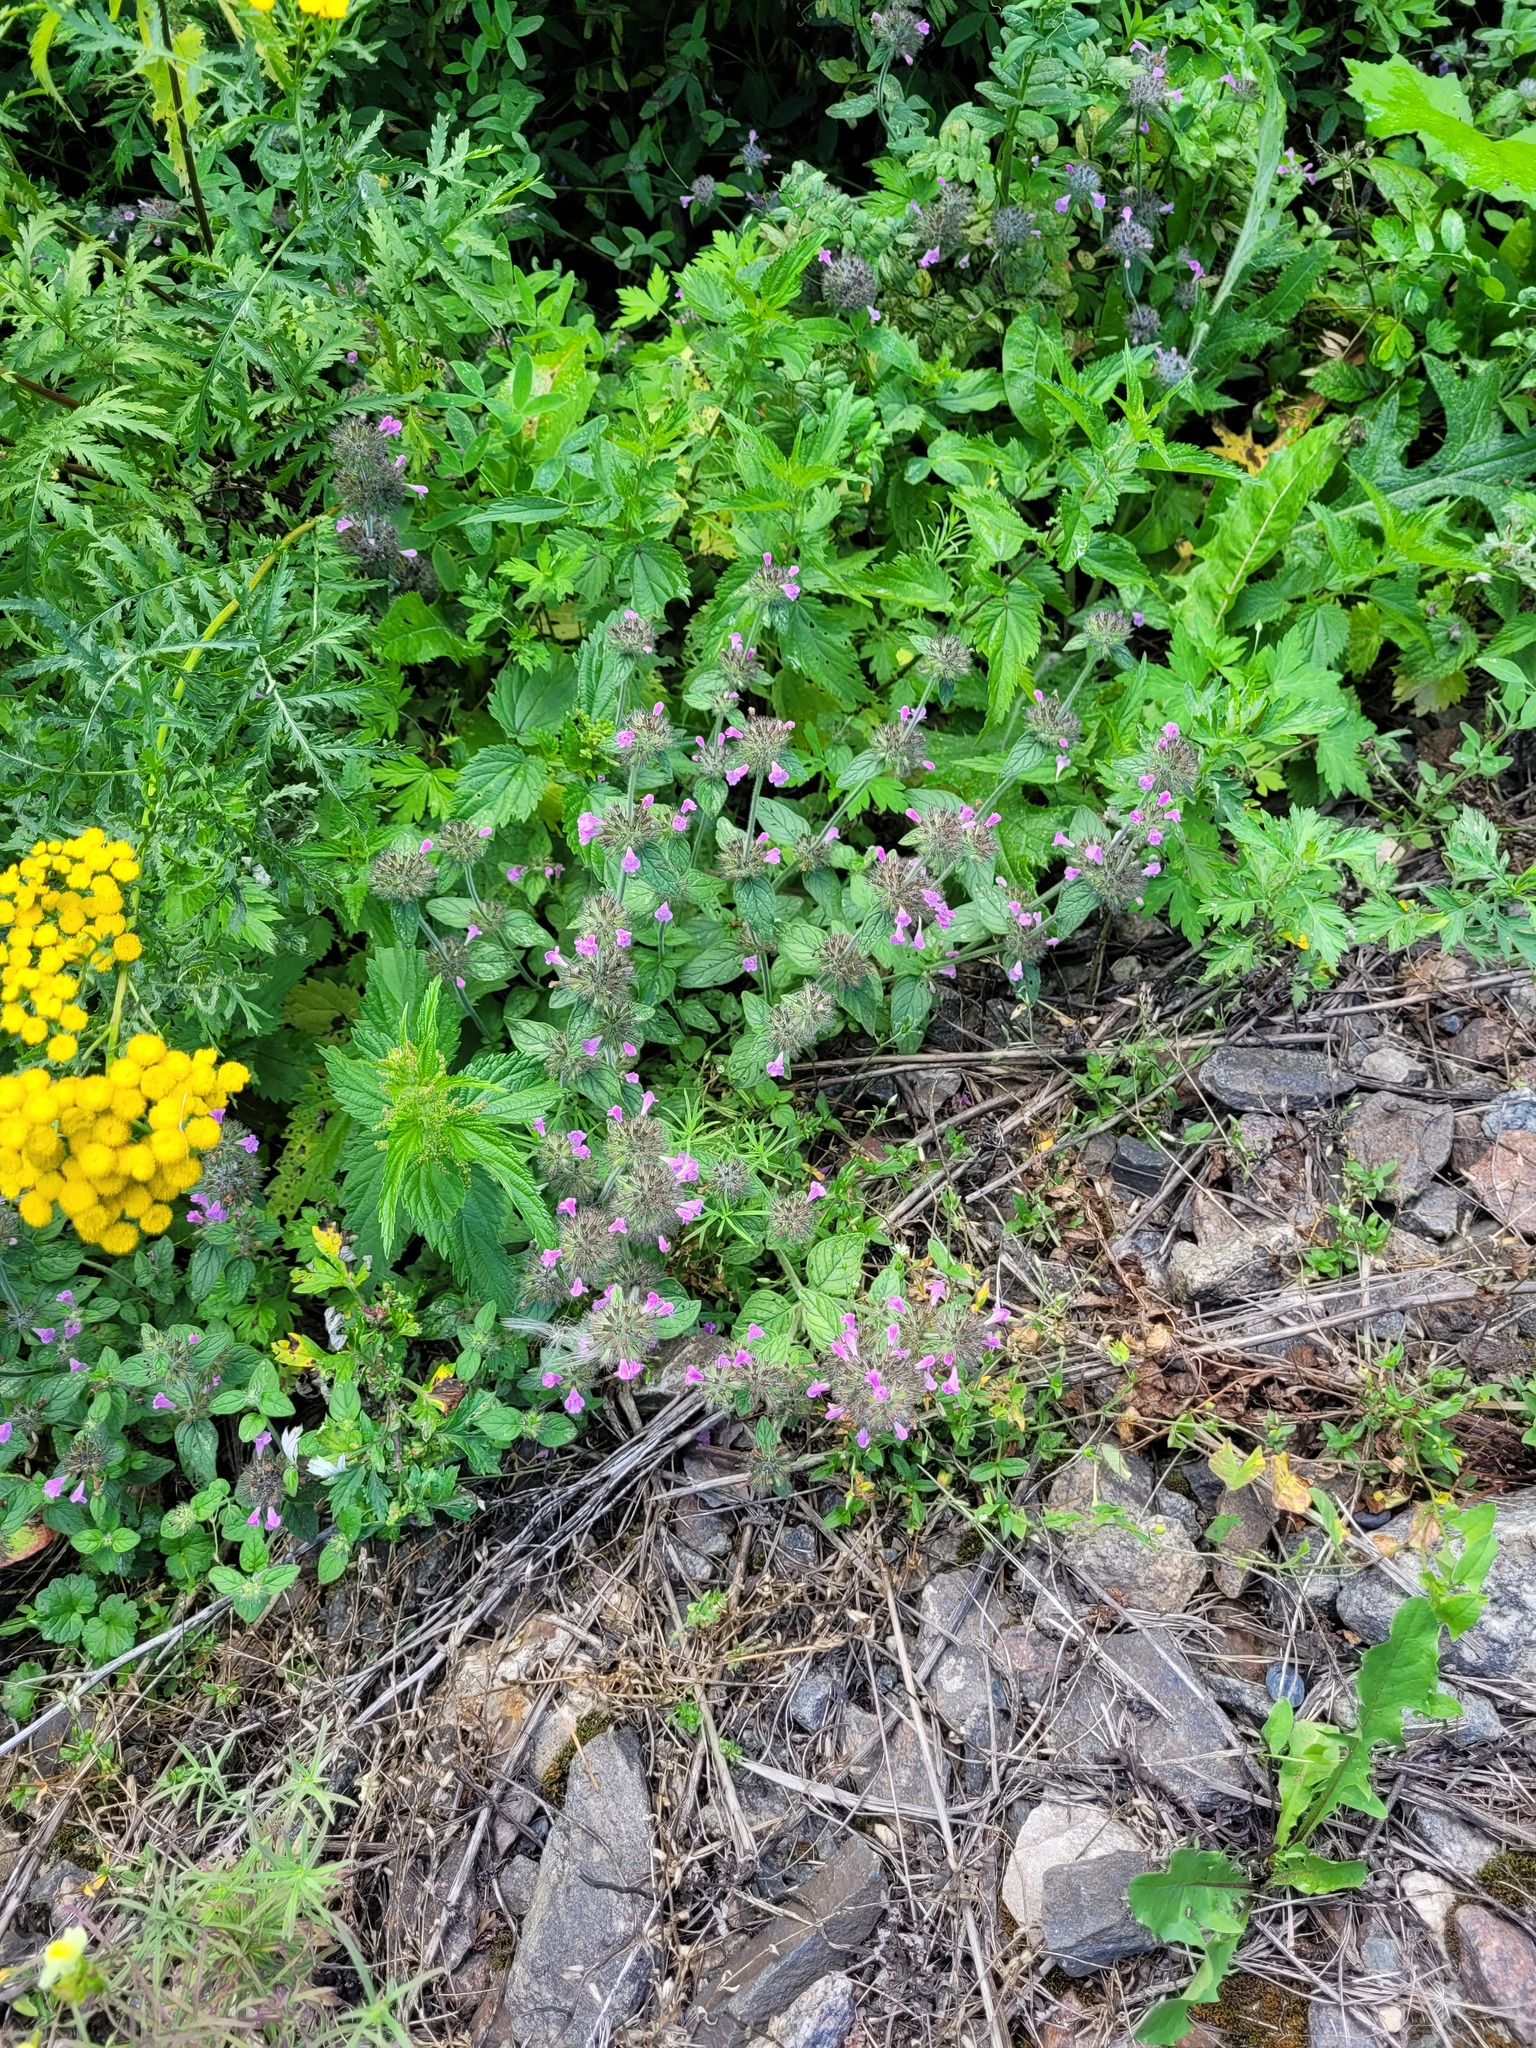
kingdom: Plantae
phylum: Tracheophyta
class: Magnoliopsida
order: Lamiales
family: Lamiaceae
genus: Clinopodium
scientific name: Clinopodium vulgare
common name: Wild basil
